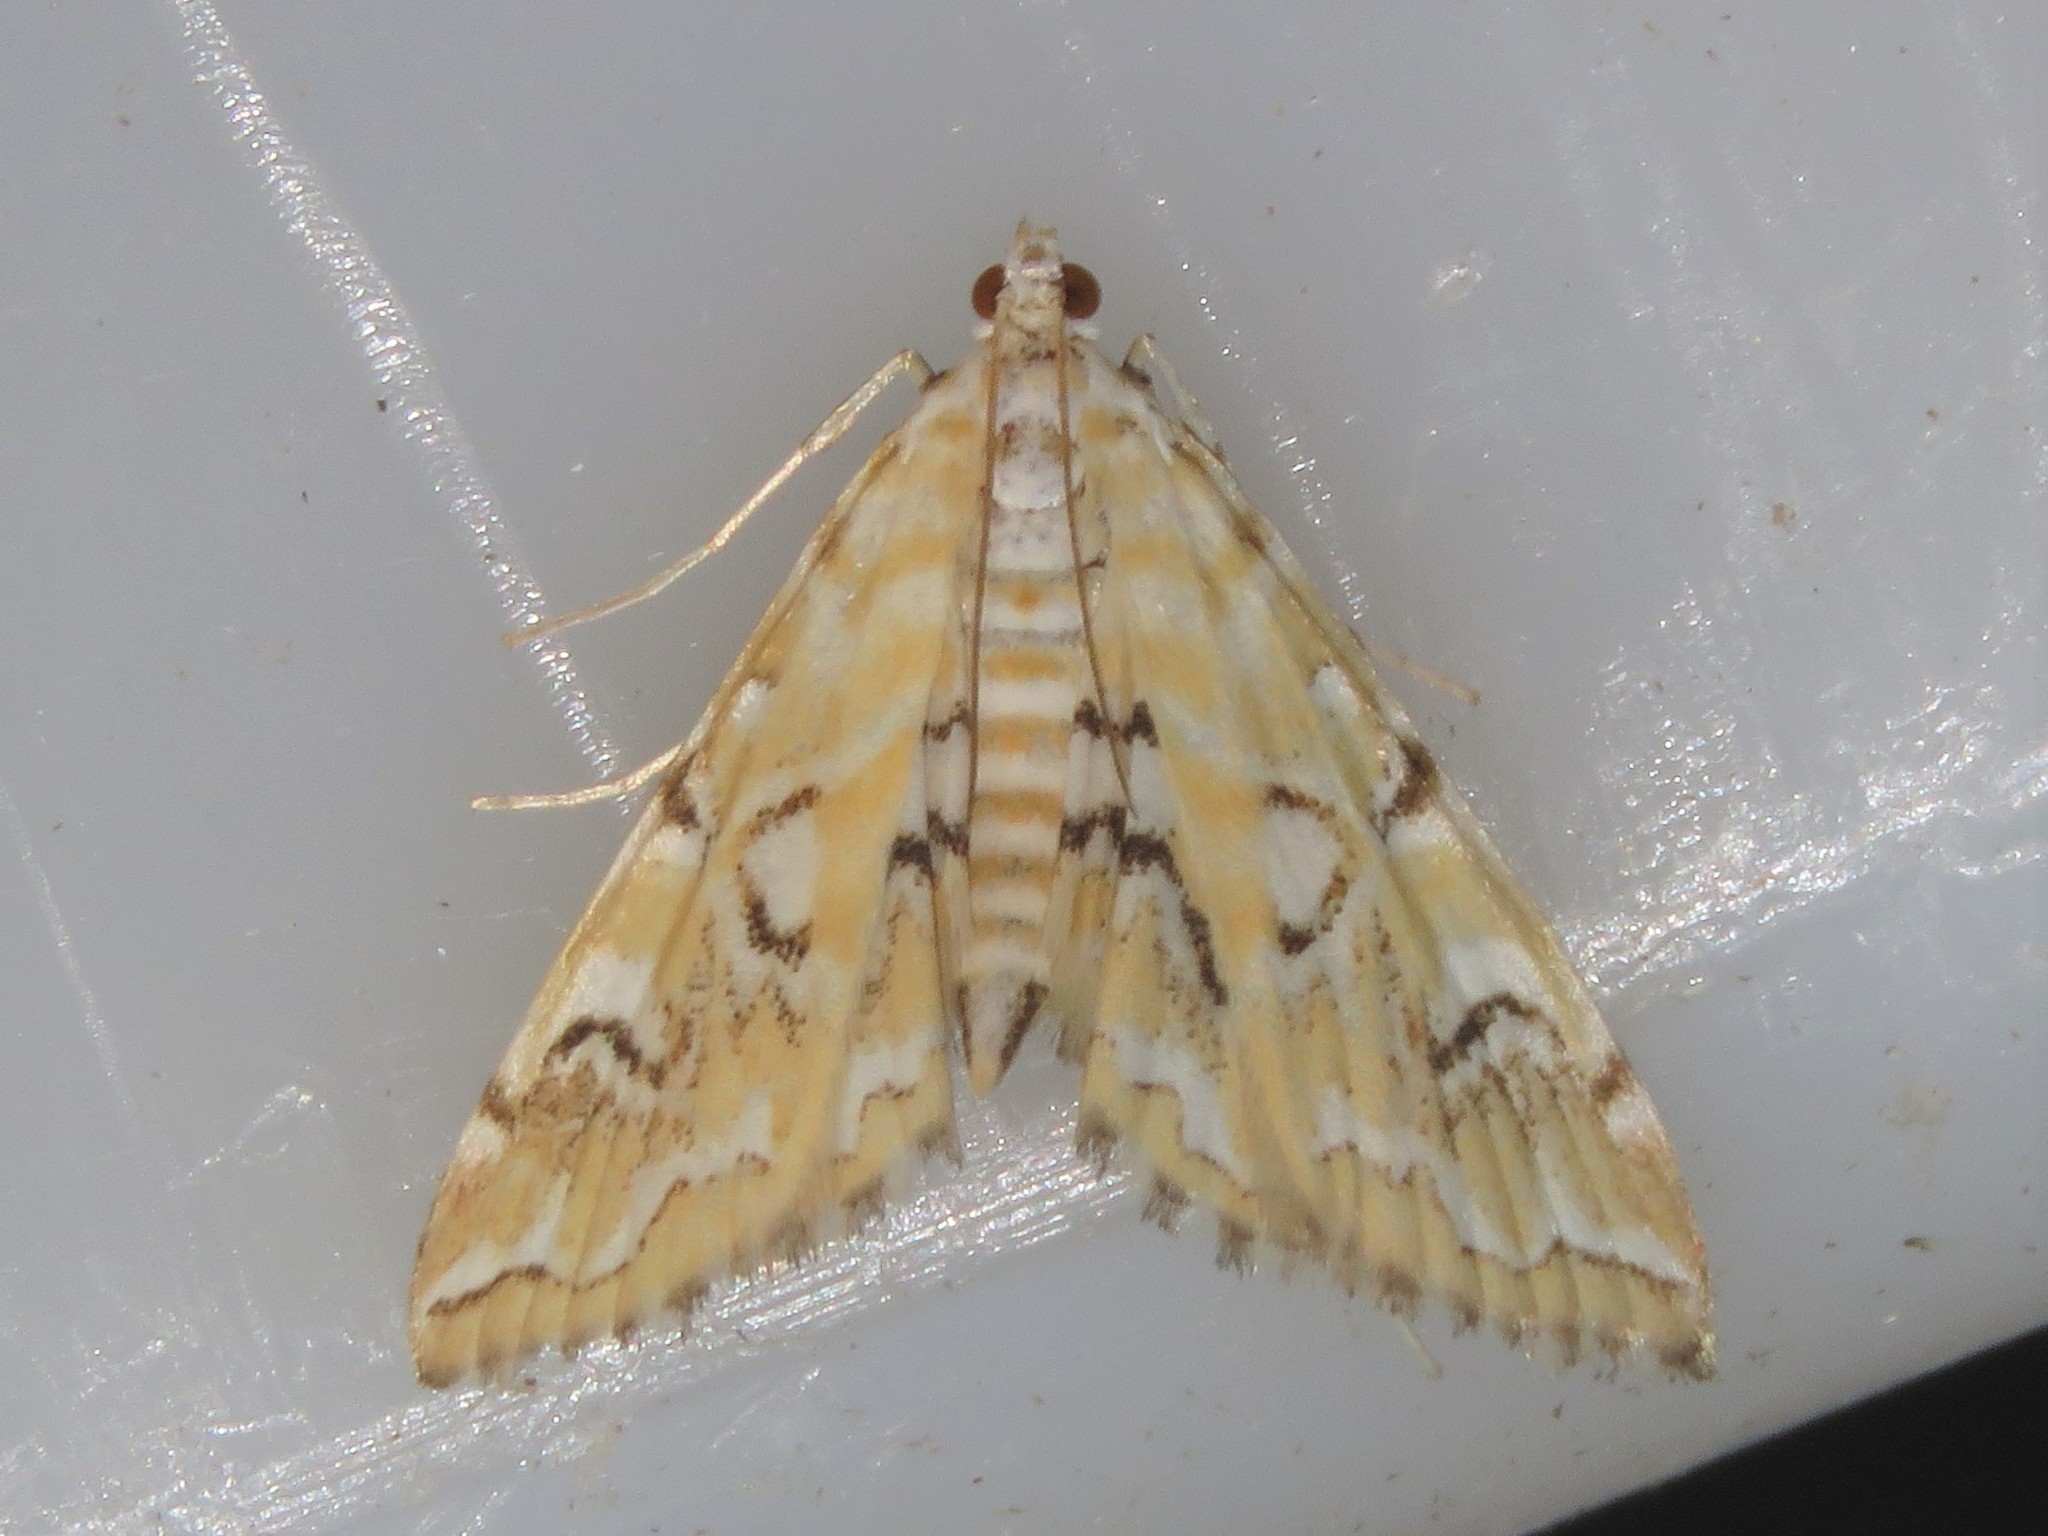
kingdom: Animalia
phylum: Arthropoda
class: Insecta
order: Lepidoptera
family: Crambidae
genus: Elophila
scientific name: Elophila icciusalis
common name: Pondside pyralid moth
